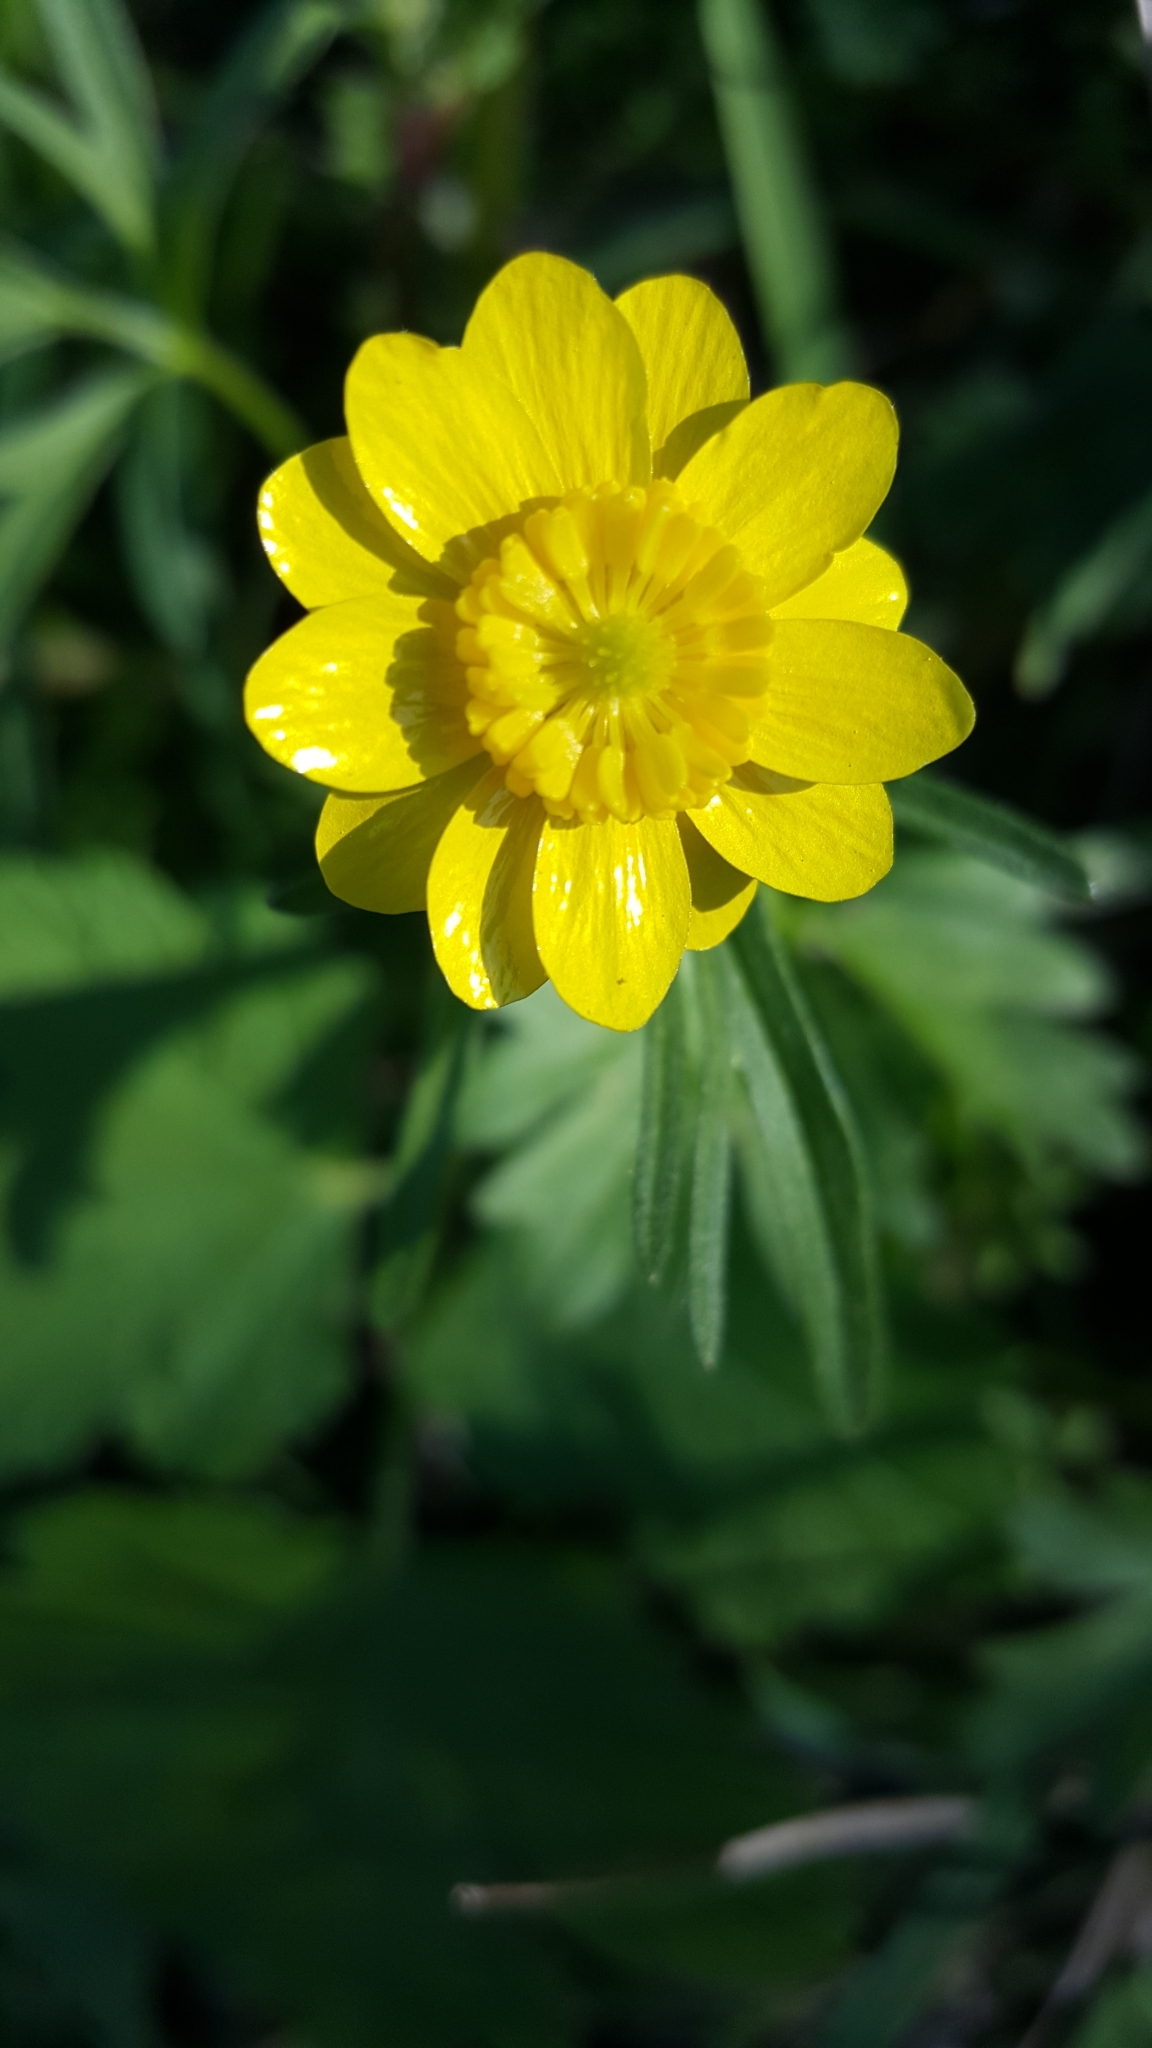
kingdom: Plantae
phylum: Tracheophyta
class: Magnoliopsida
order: Ranunculales
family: Ranunculaceae
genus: Ranunculus
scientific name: Ranunculus californicus
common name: California buttercup
